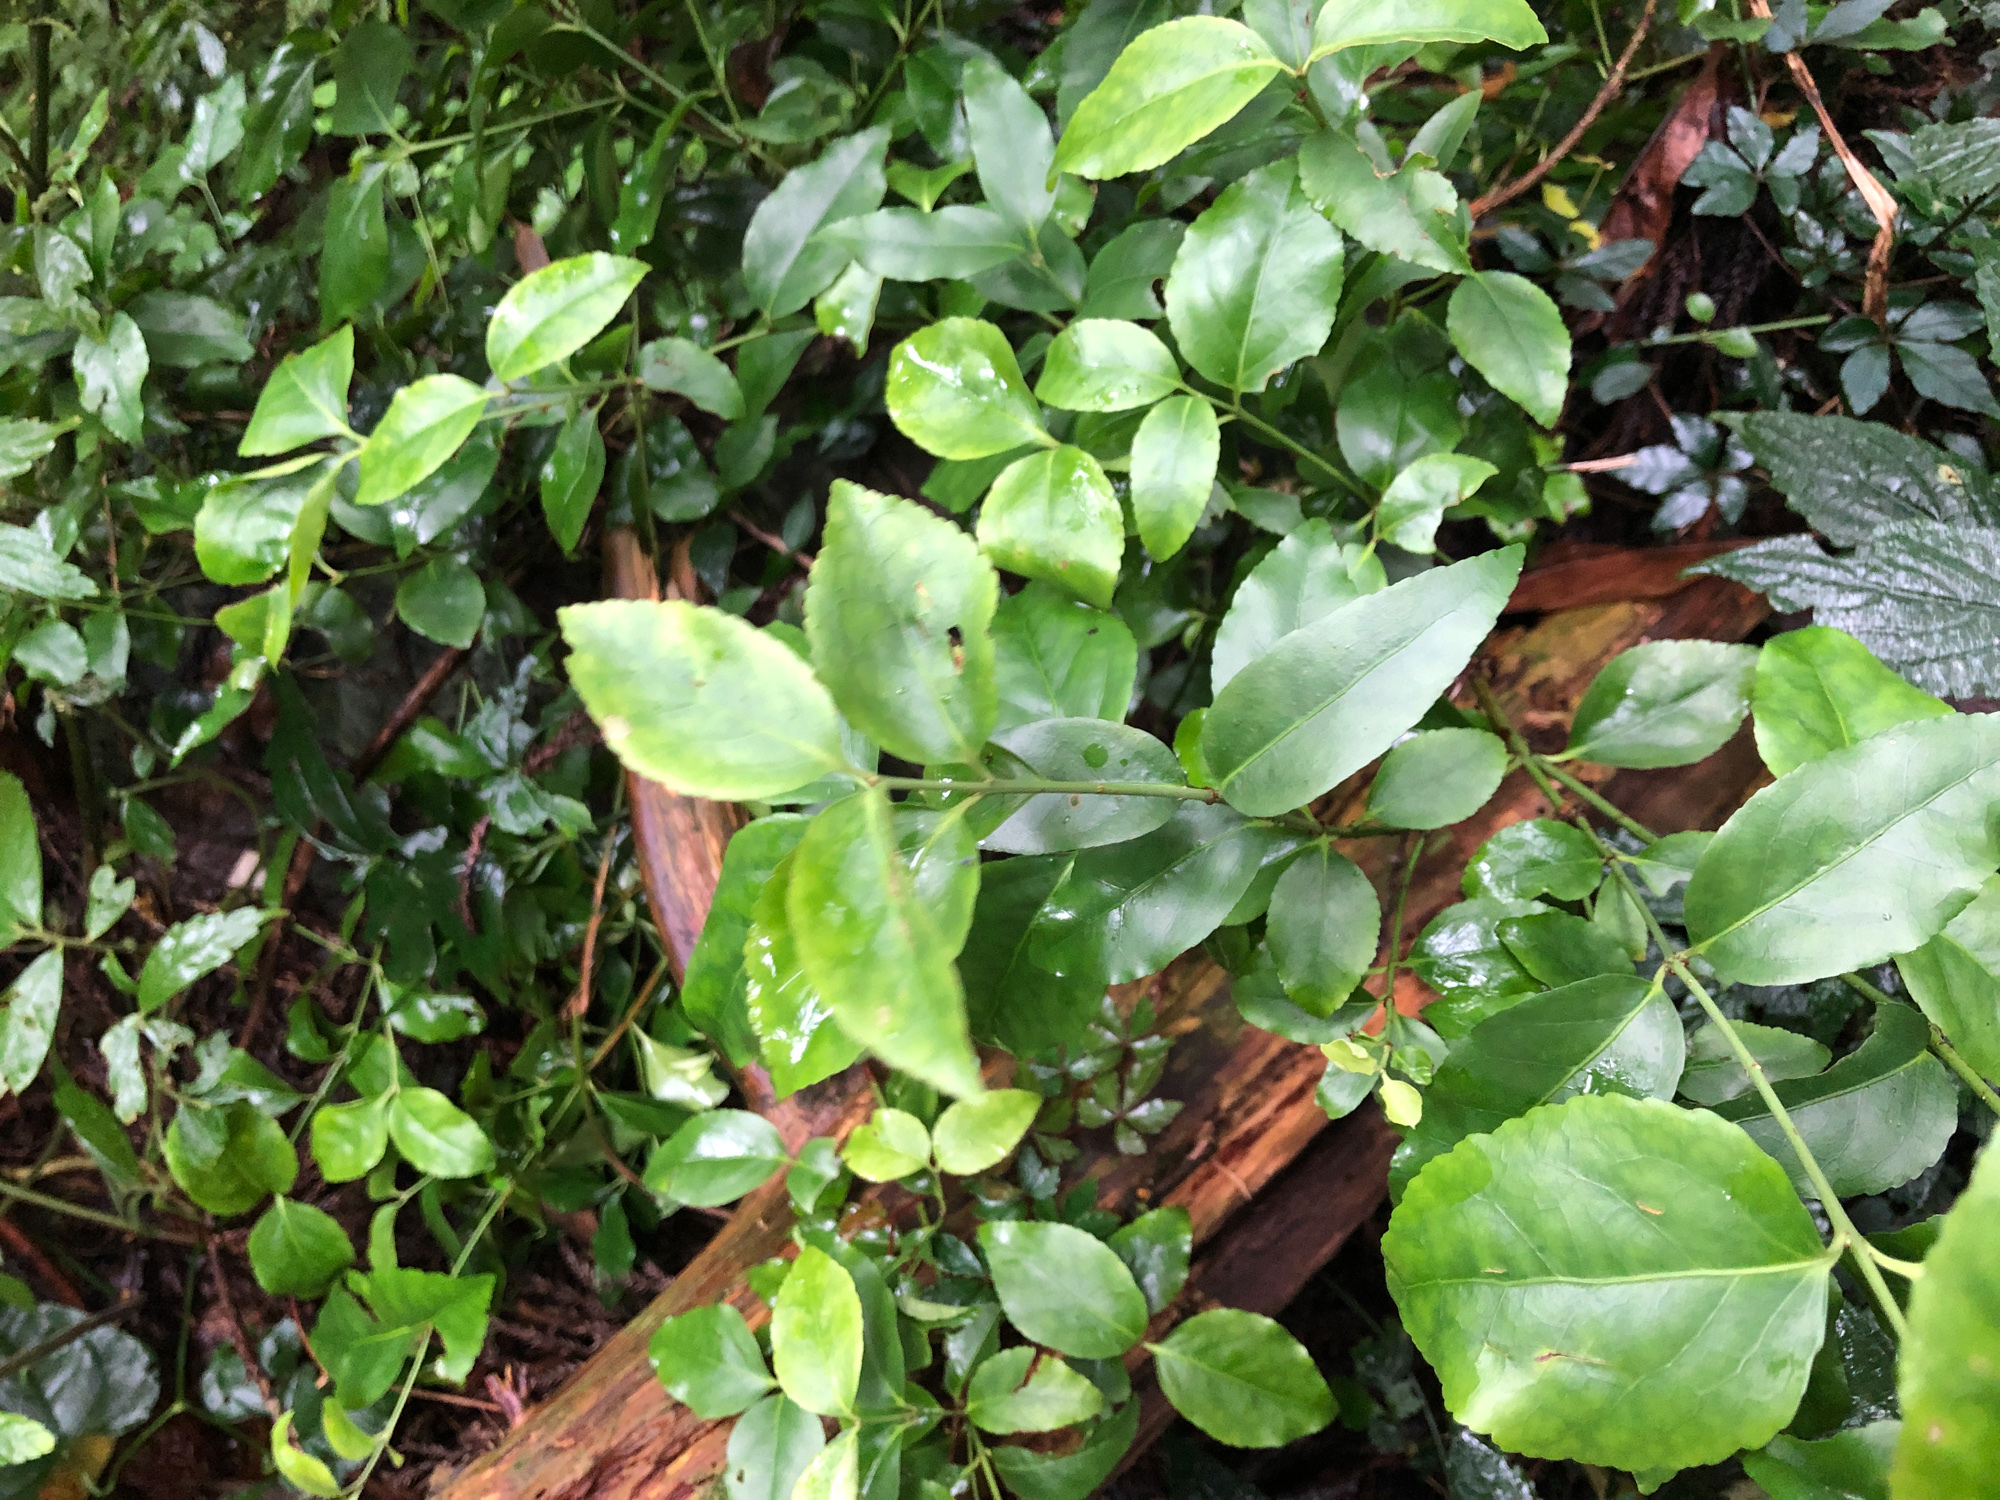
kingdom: Plantae
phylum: Tracheophyta
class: Magnoliopsida
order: Celastrales
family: Celastraceae
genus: Euonymus
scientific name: Euonymus japonicus
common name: Japanese spindletree
